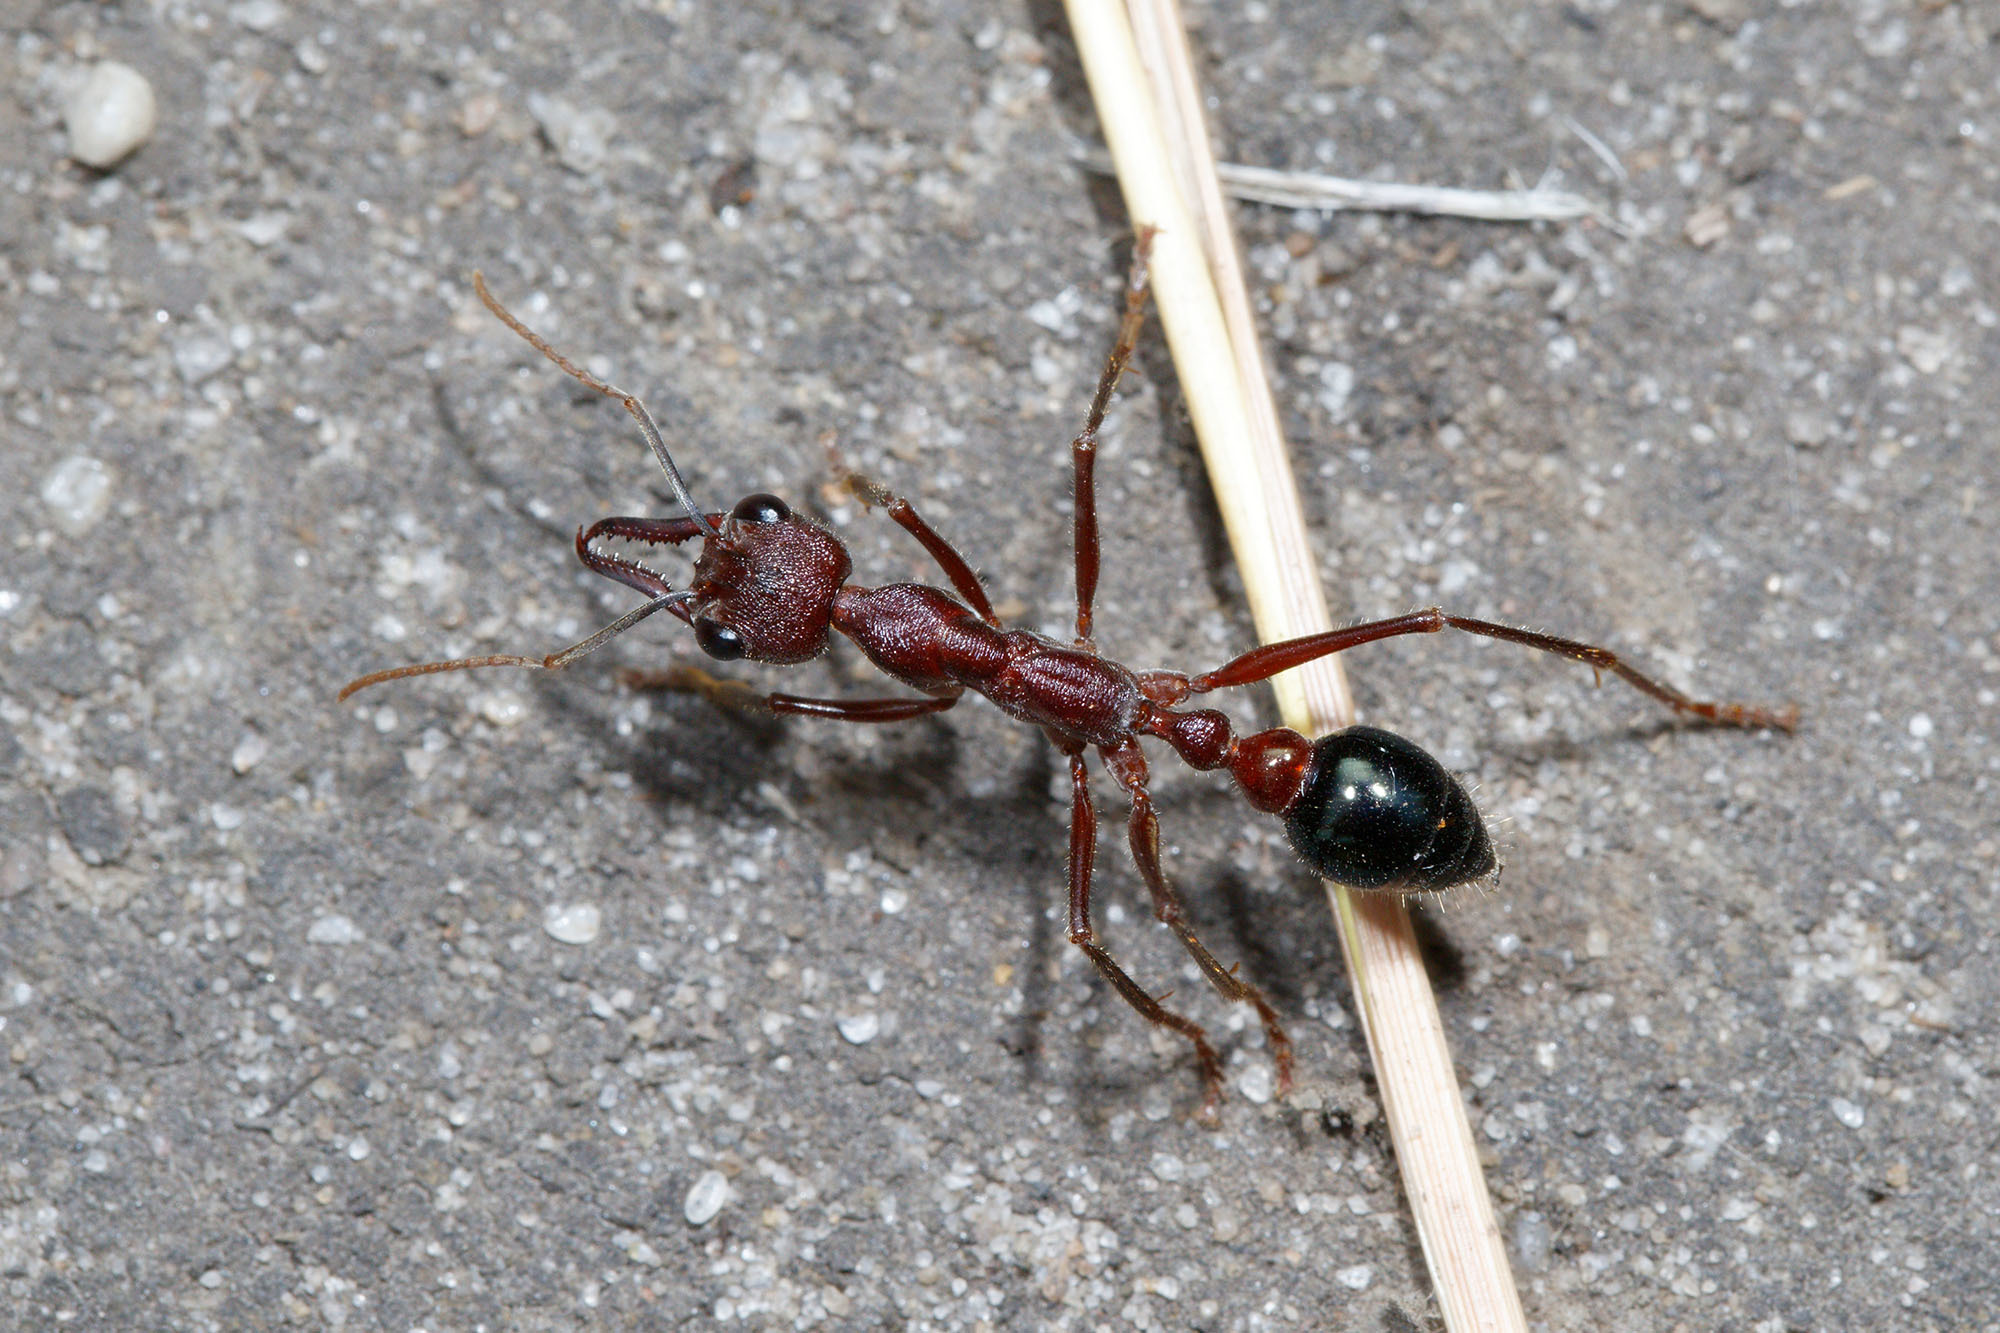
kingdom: Animalia
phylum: Arthropoda
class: Insecta
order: Hymenoptera
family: Formicidae
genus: Myrmecia
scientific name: Myrmecia forficata
